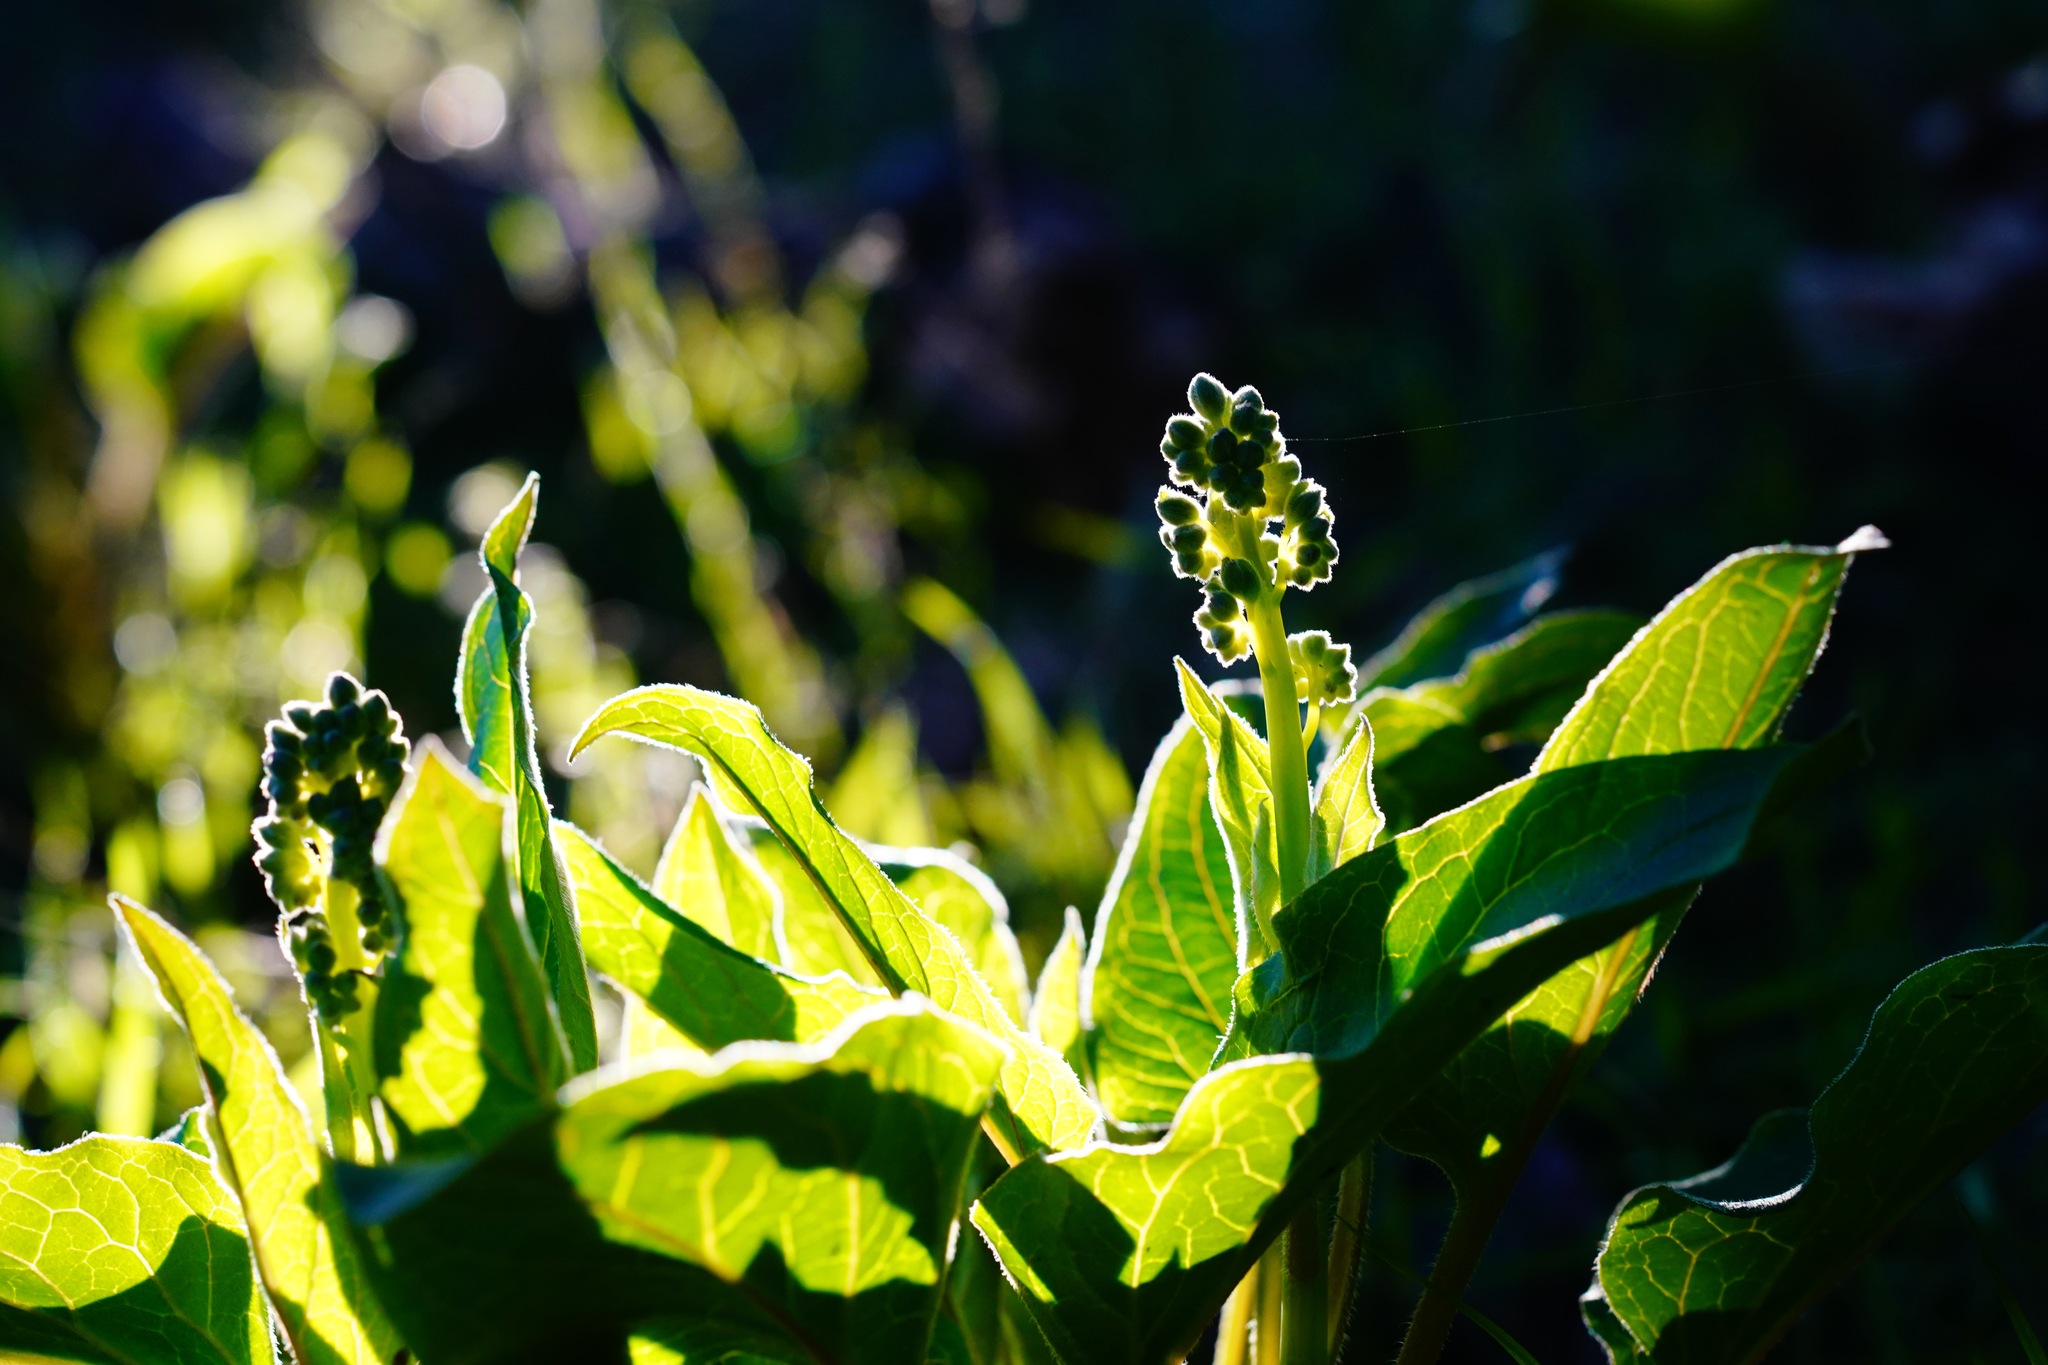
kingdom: Plantae
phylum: Tracheophyta
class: Magnoliopsida
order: Boraginales
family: Boraginaceae
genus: Adelinia
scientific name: Adelinia grande
